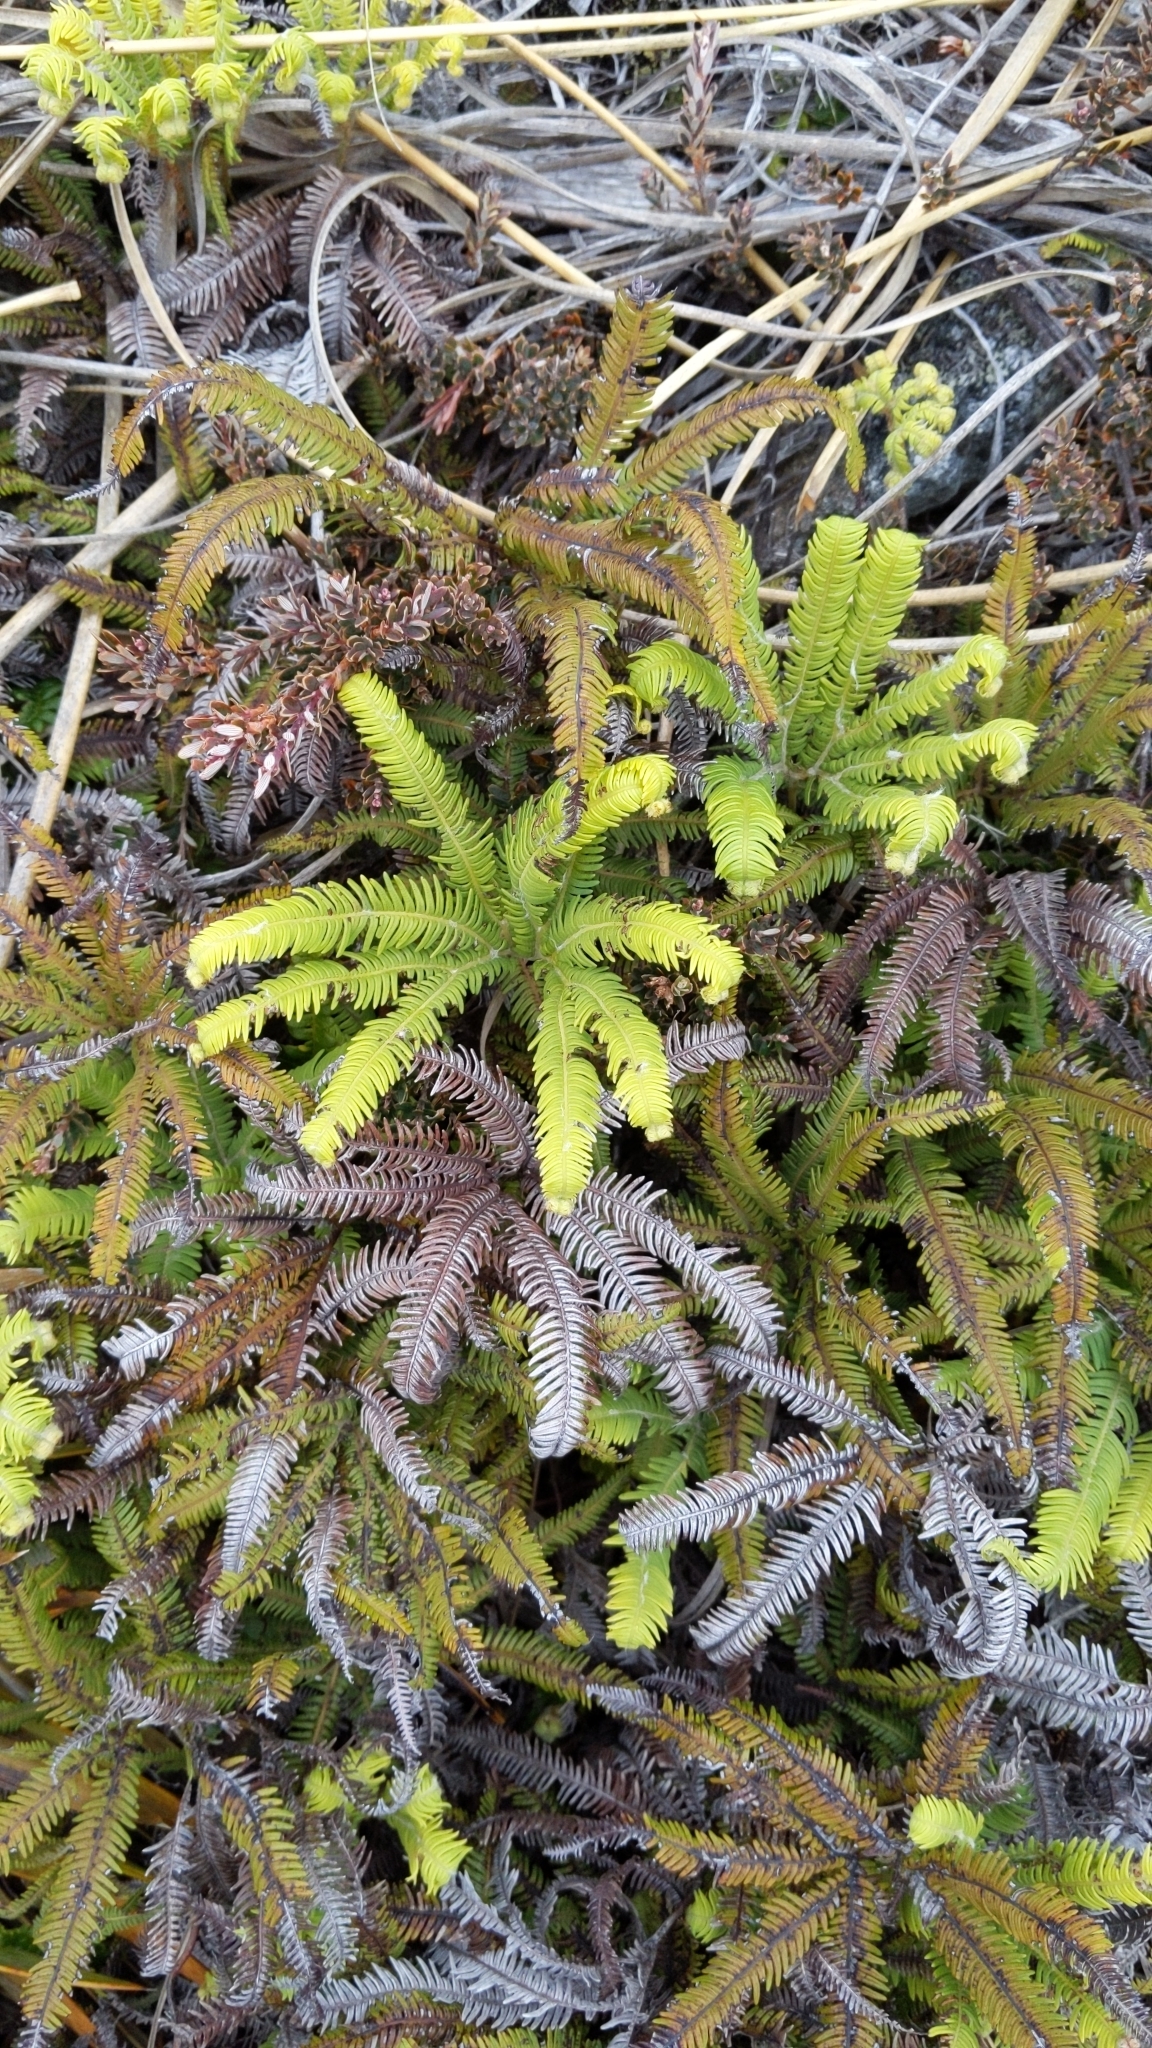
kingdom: Plantae
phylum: Tracheophyta
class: Polypodiopsida
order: Gleicheniales
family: Gleicheniaceae
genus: Sticherus
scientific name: Sticherus cunninghamii
